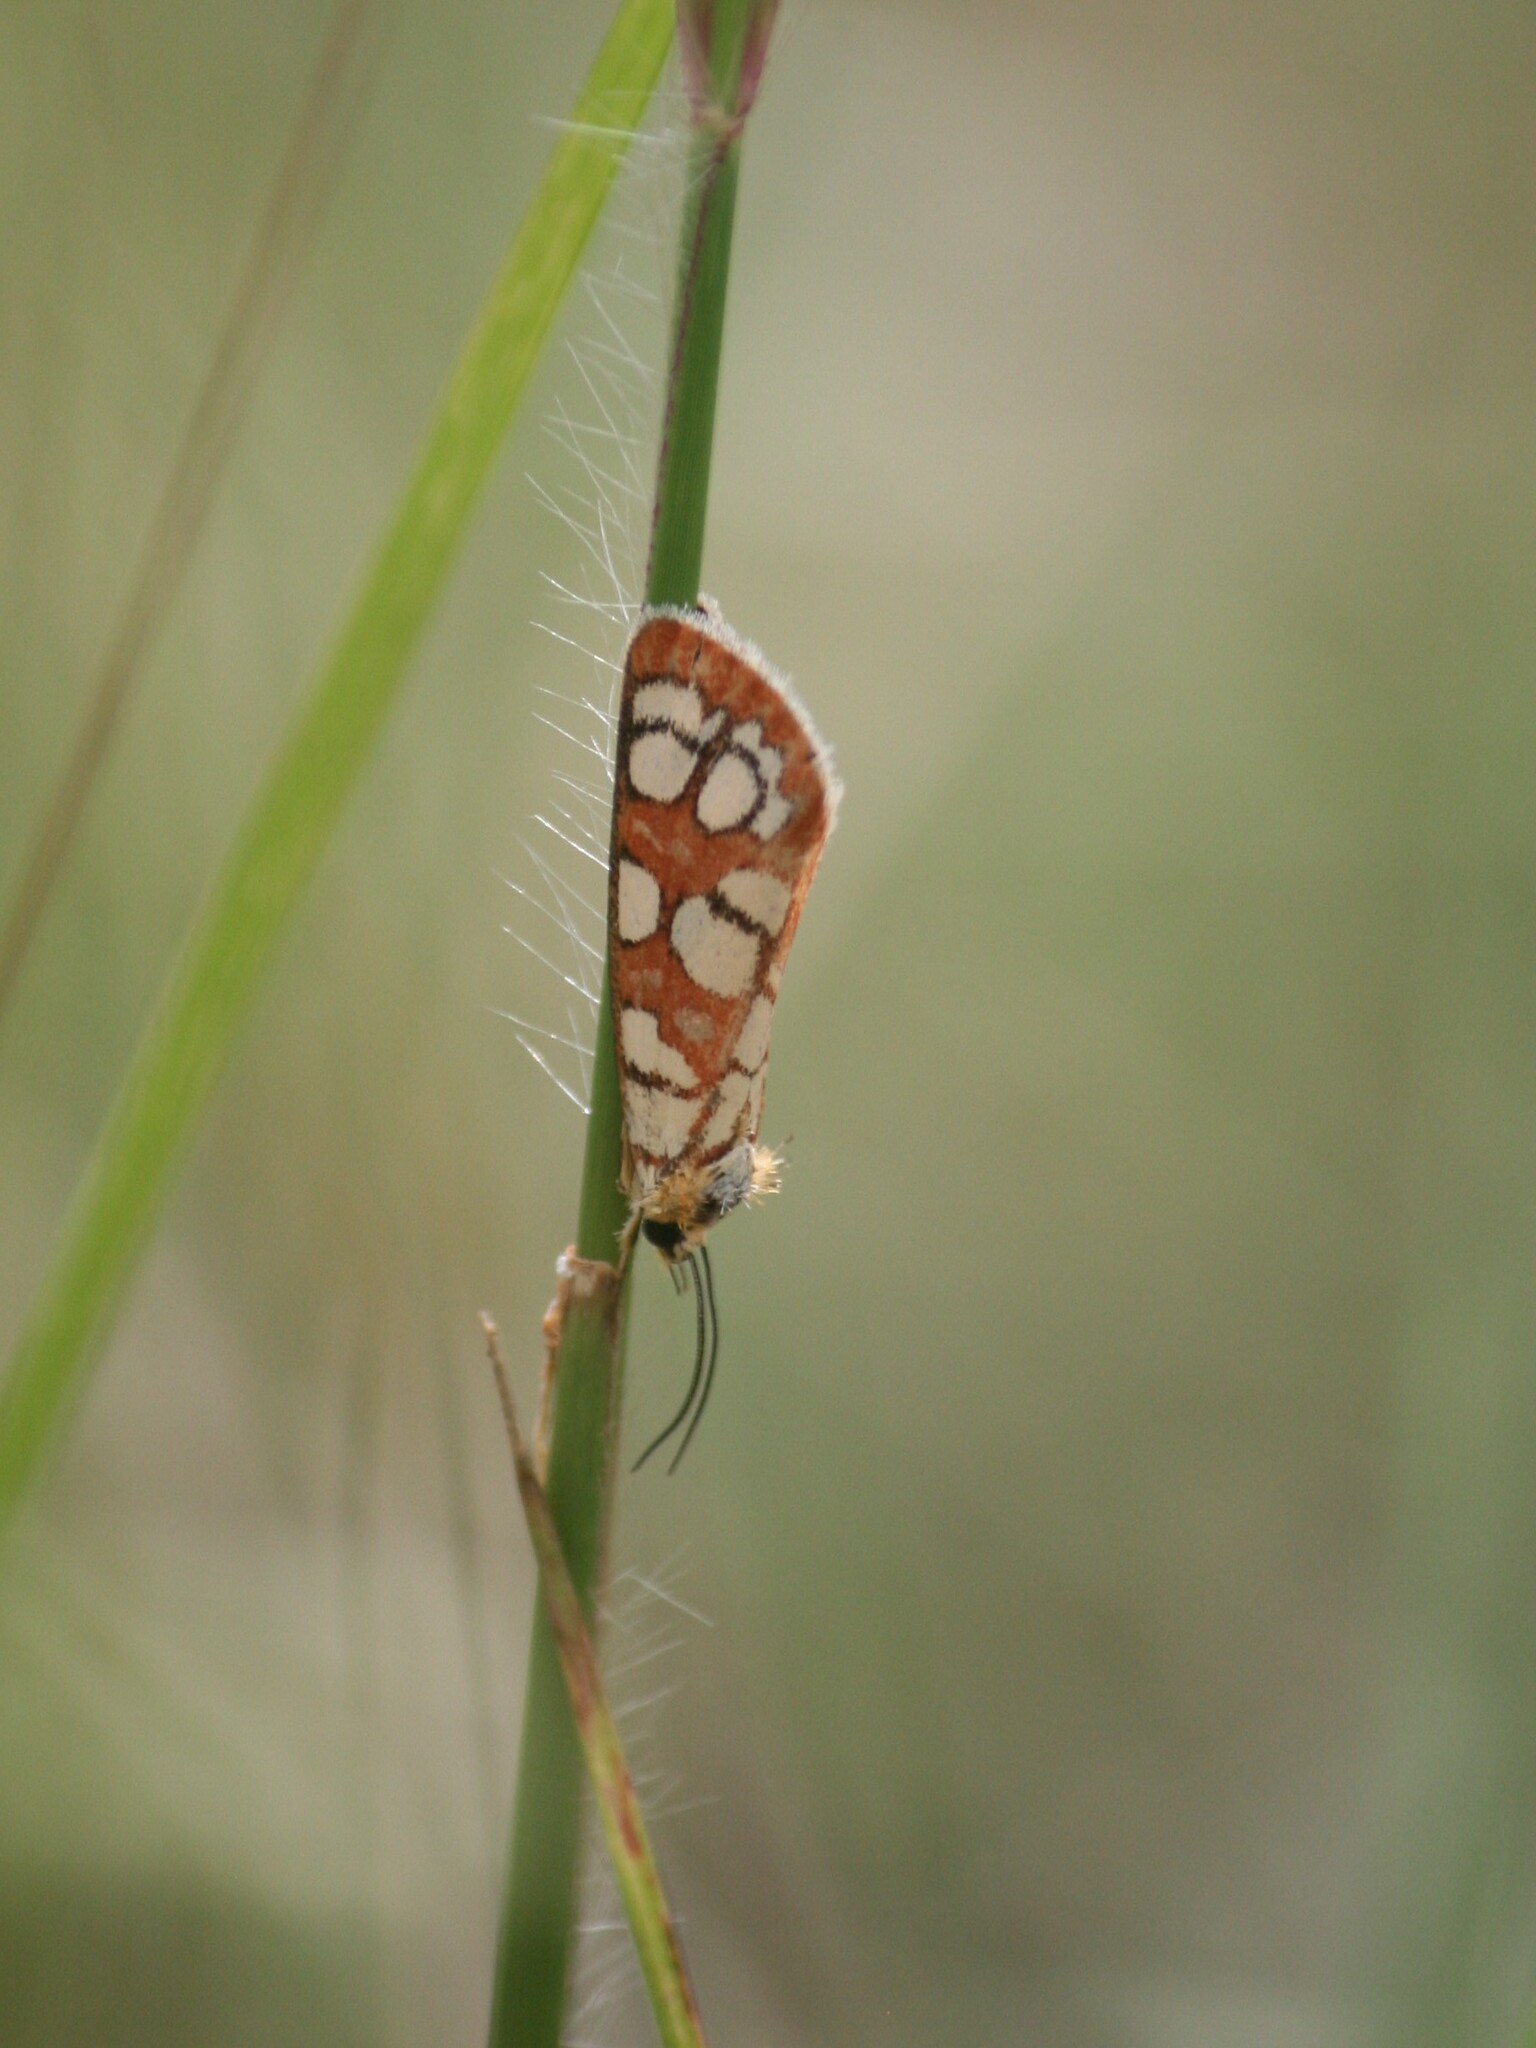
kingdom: Animalia
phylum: Arthropoda
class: Insecta
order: Lepidoptera
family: Noctuidae
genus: Crameria
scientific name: Crameria amabilis
